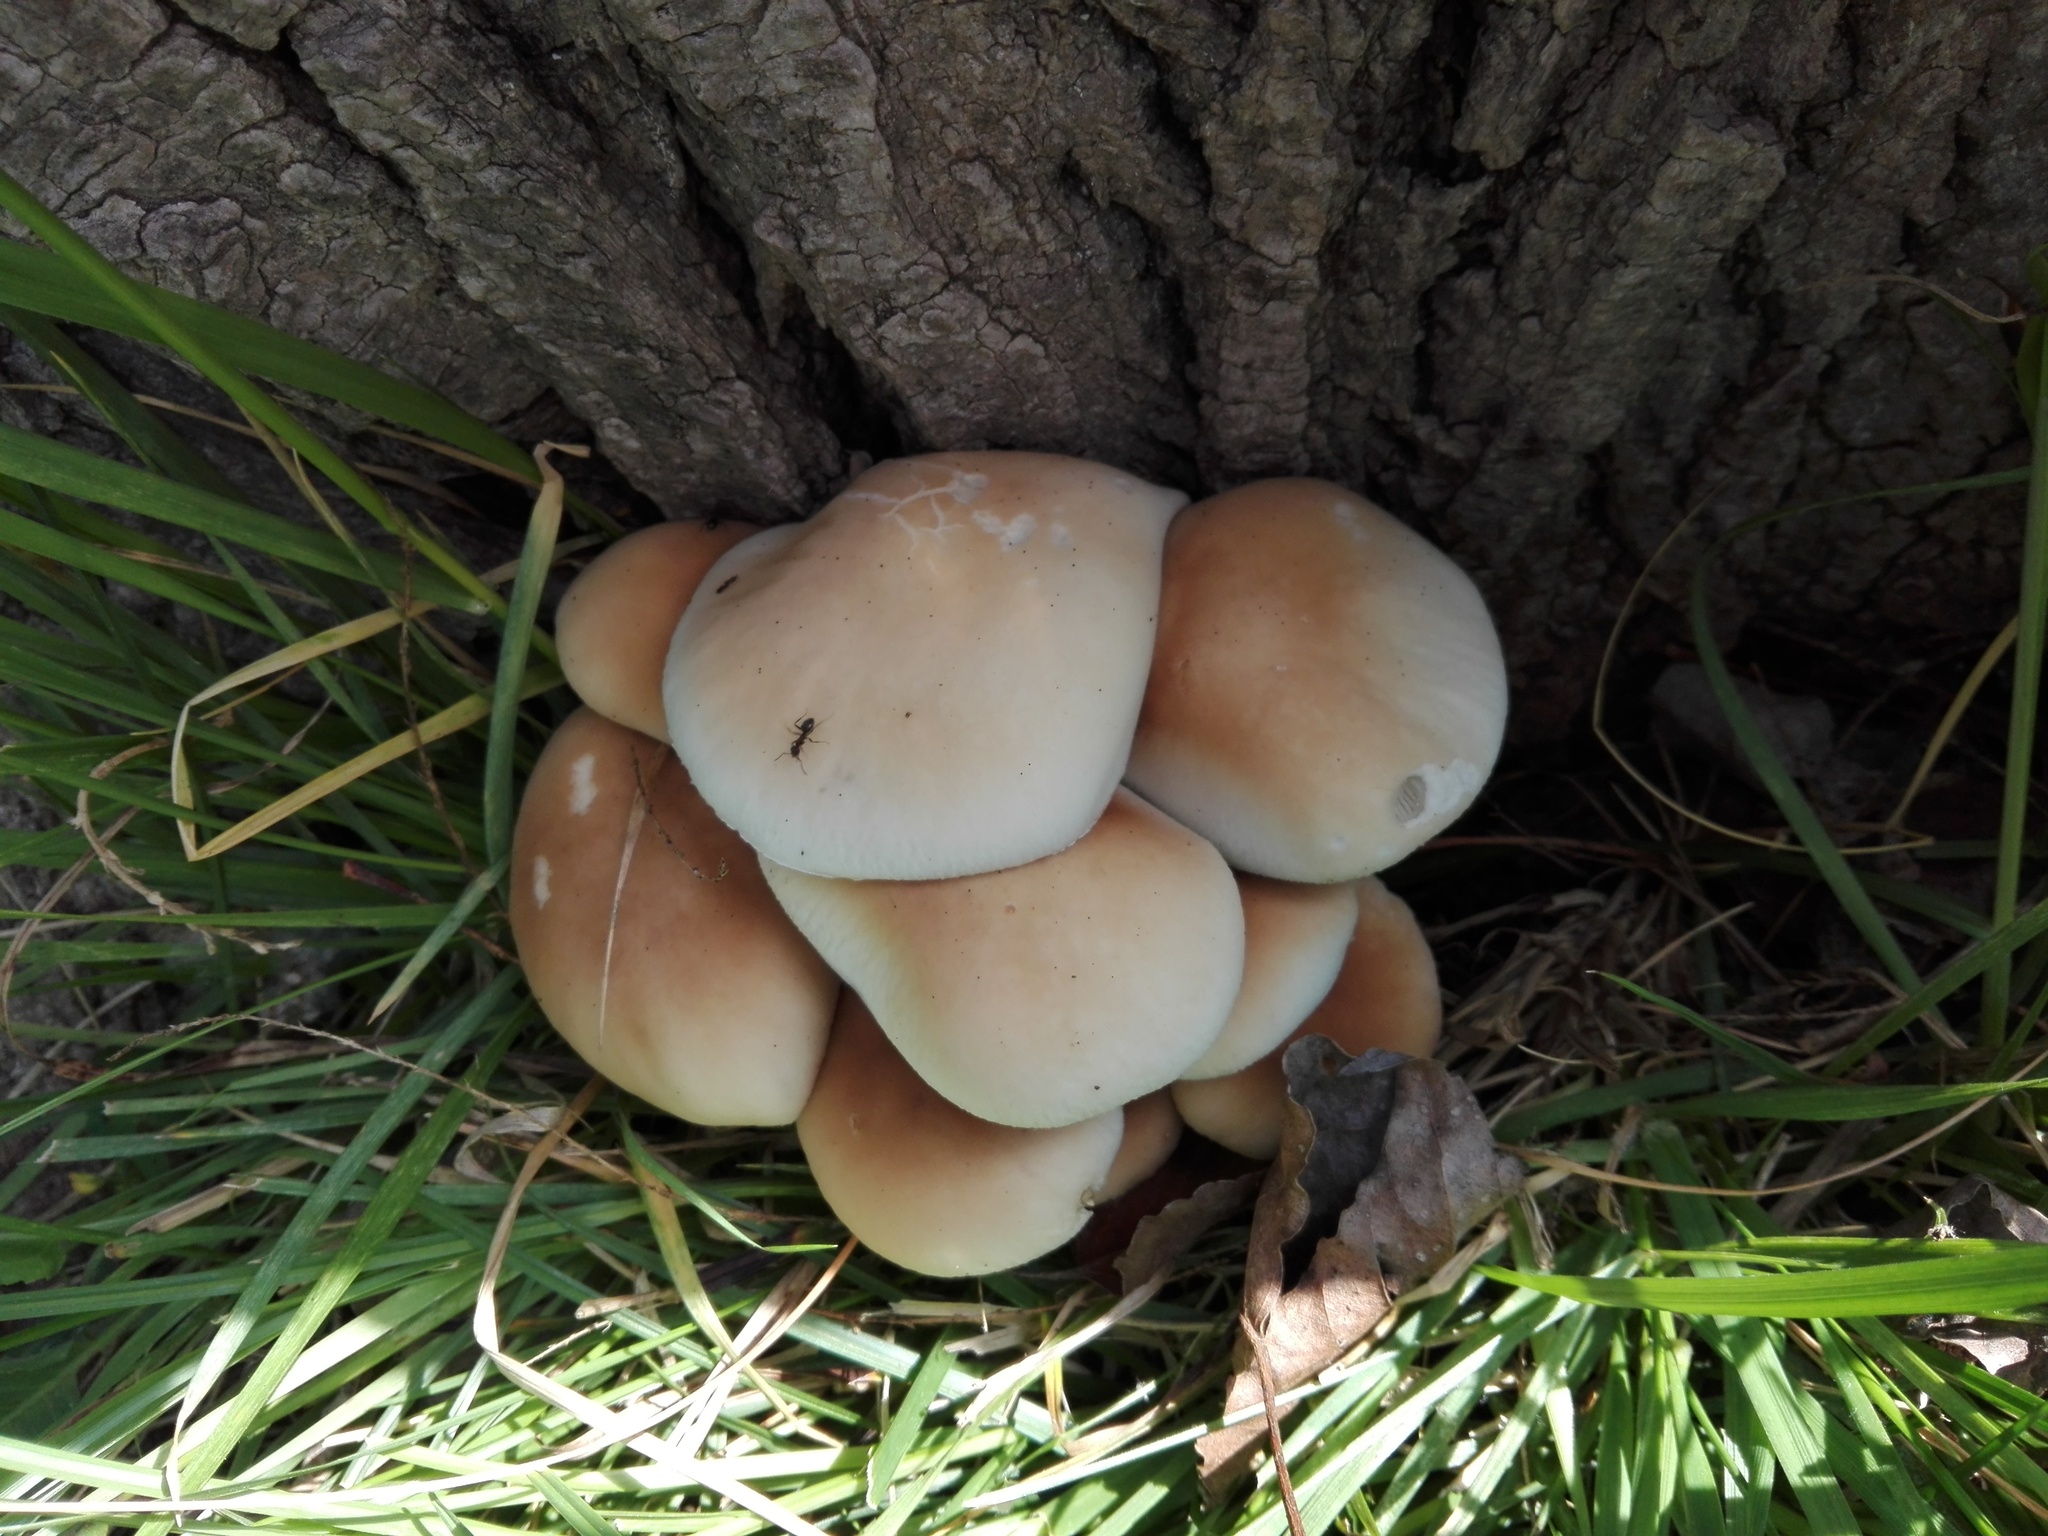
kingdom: Fungi
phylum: Basidiomycota
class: Agaricomycetes
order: Agaricales
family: Tubariaceae
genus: Cyclocybe
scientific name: Cyclocybe cylindracea
